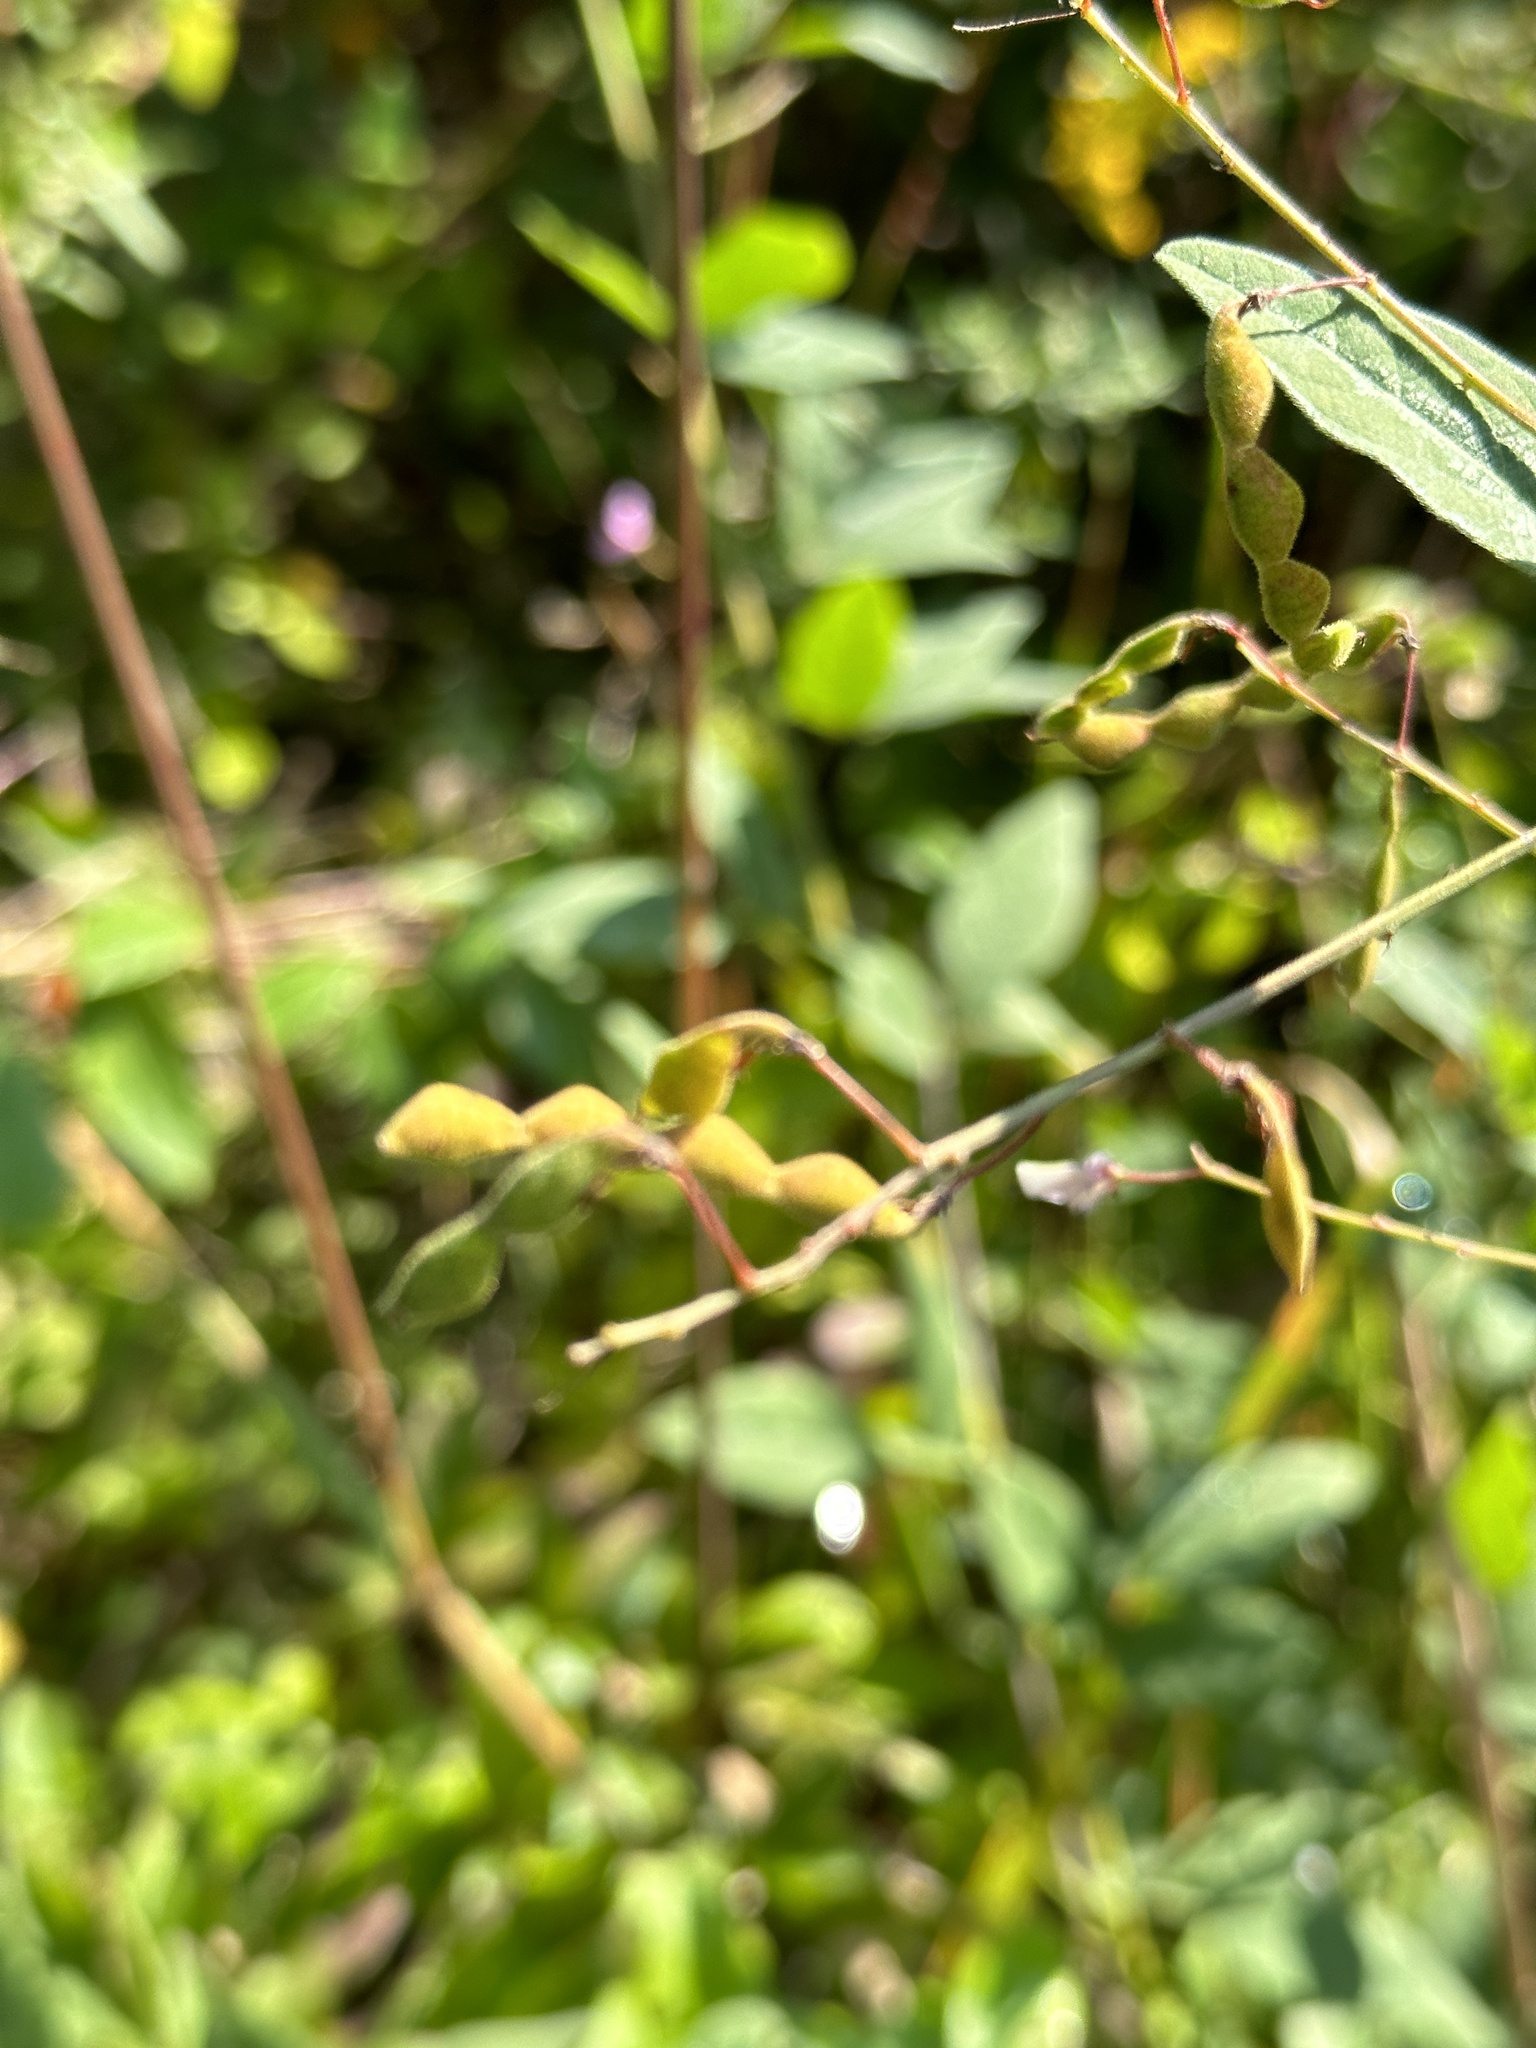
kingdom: Plantae
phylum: Tracheophyta
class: Magnoliopsida
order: Fabales
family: Fabaceae
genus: Desmodium
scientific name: Desmodium glabellum
